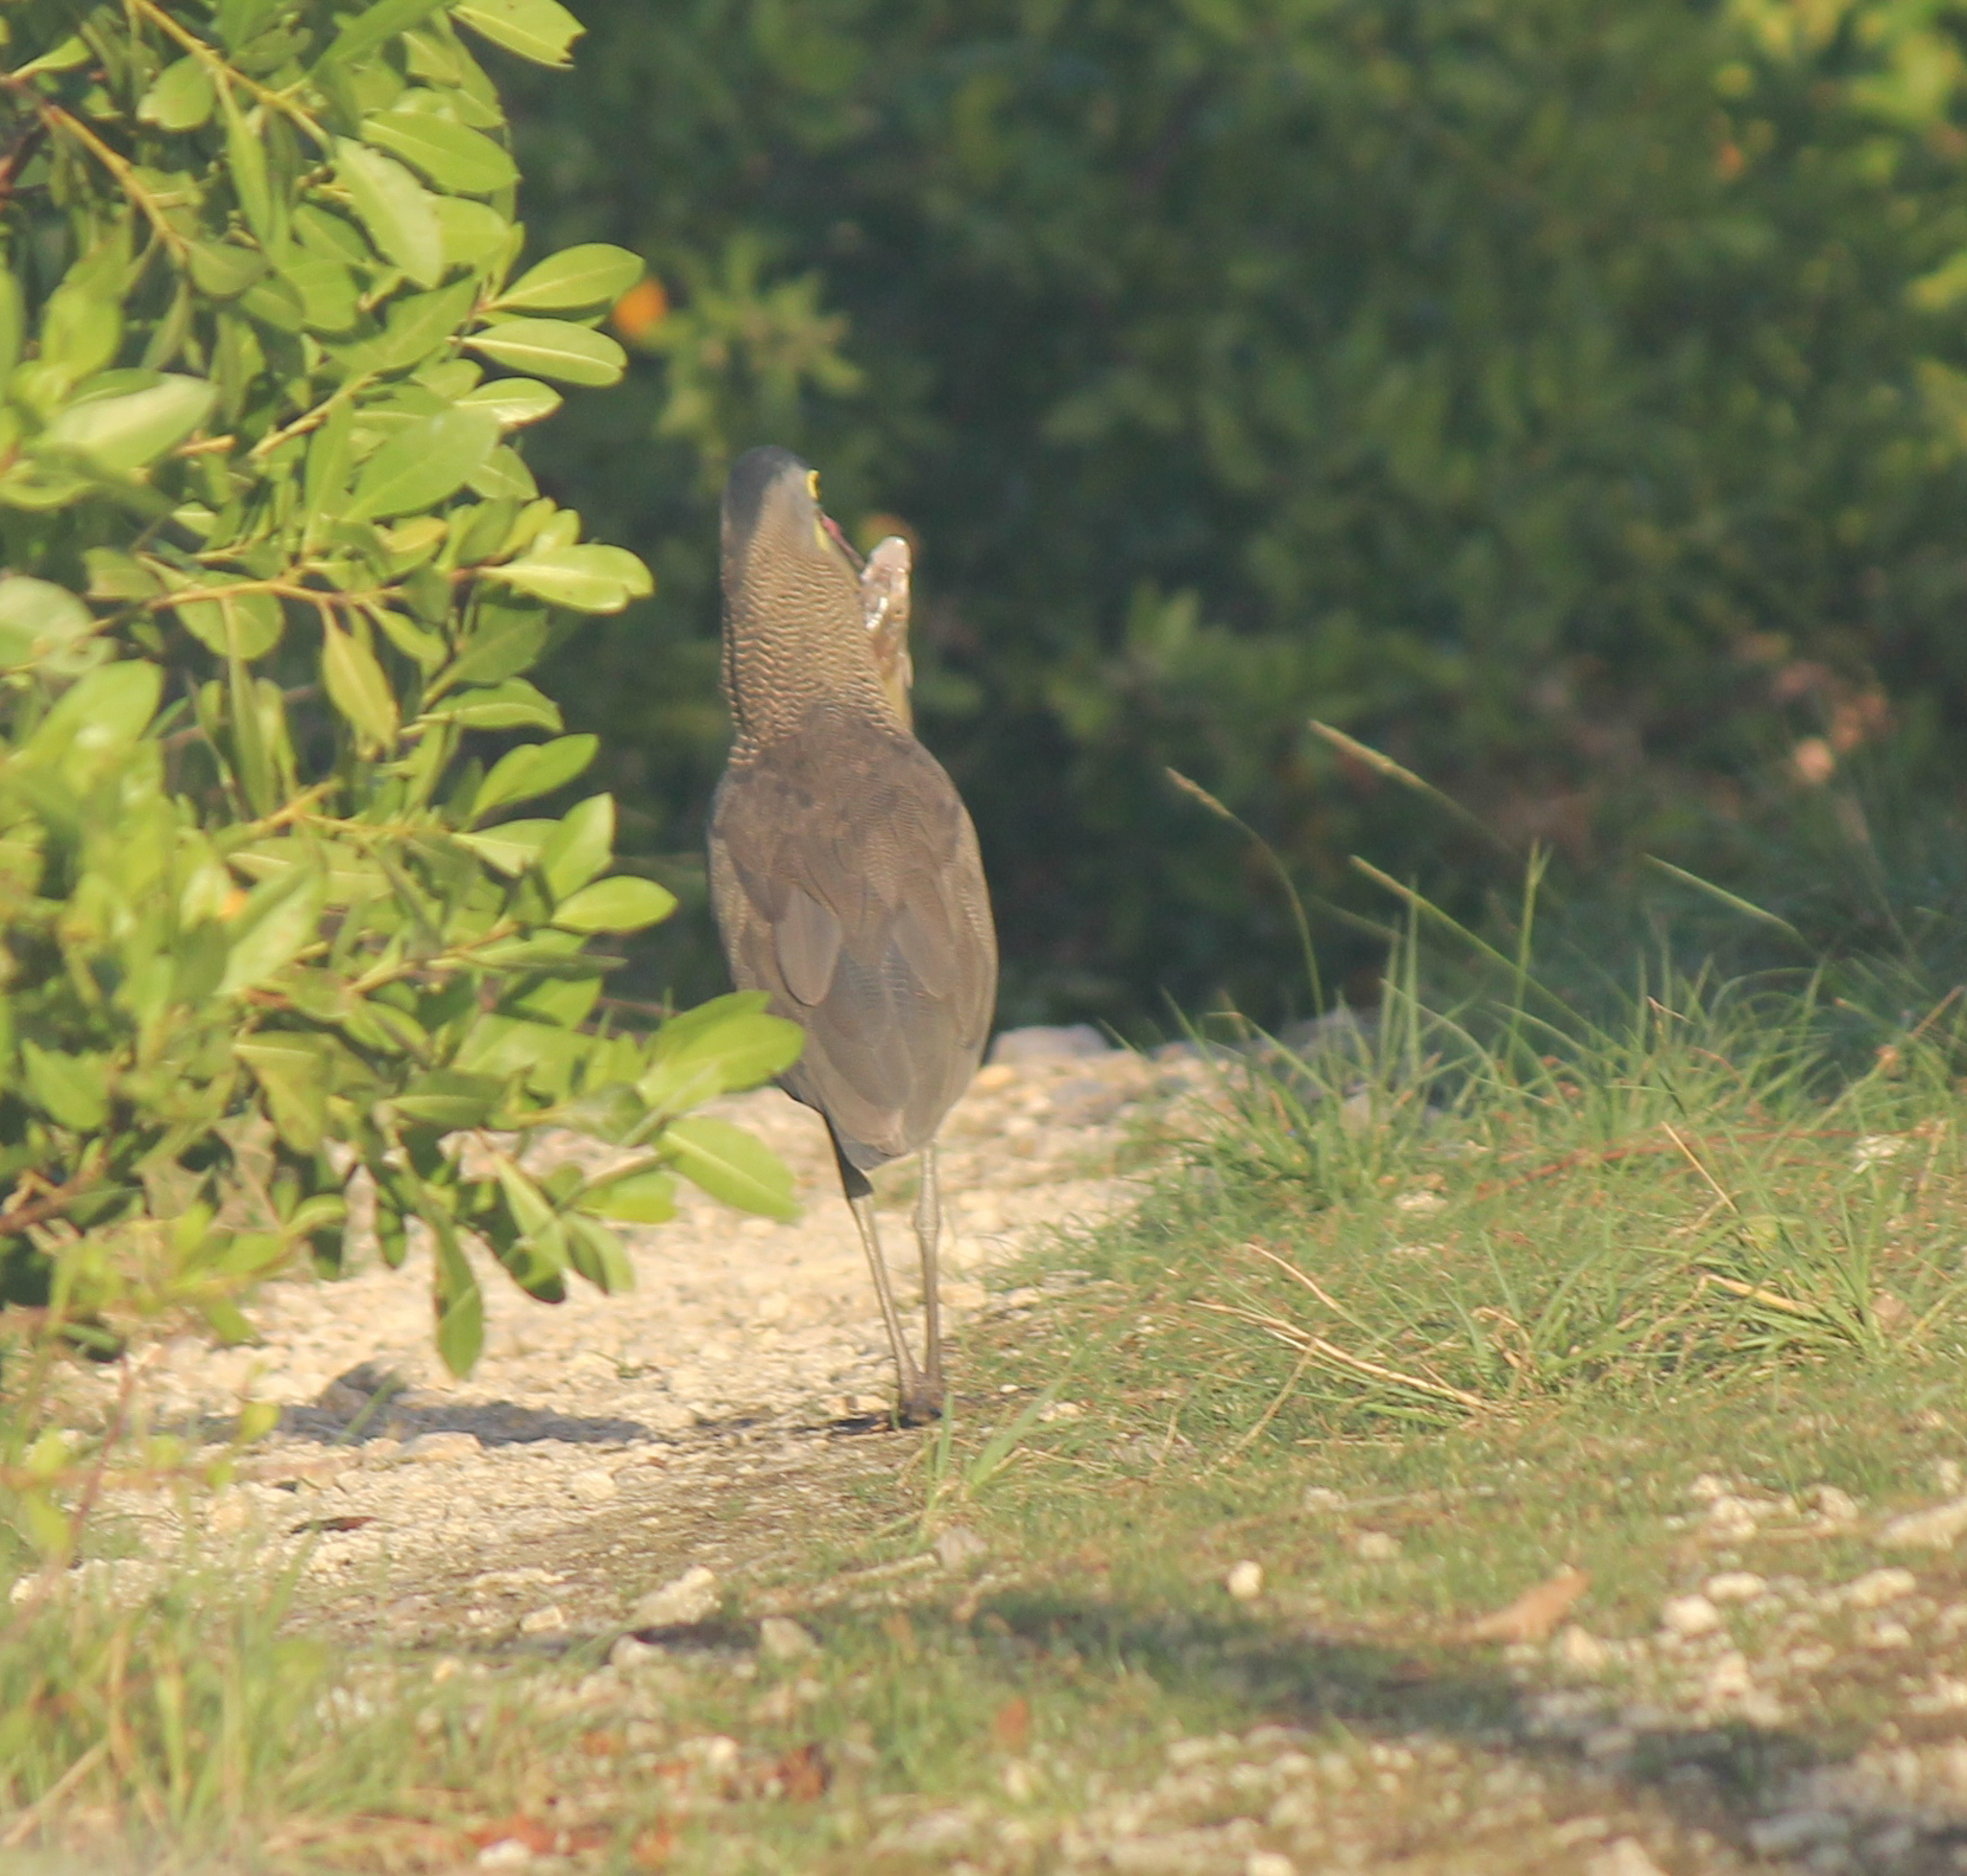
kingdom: Animalia
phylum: Chordata
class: Aves
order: Pelecaniformes
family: Ardeidae
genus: Tigrisoma
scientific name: Tigrisoma mexicanum
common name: Bare-throated tiger-heron
